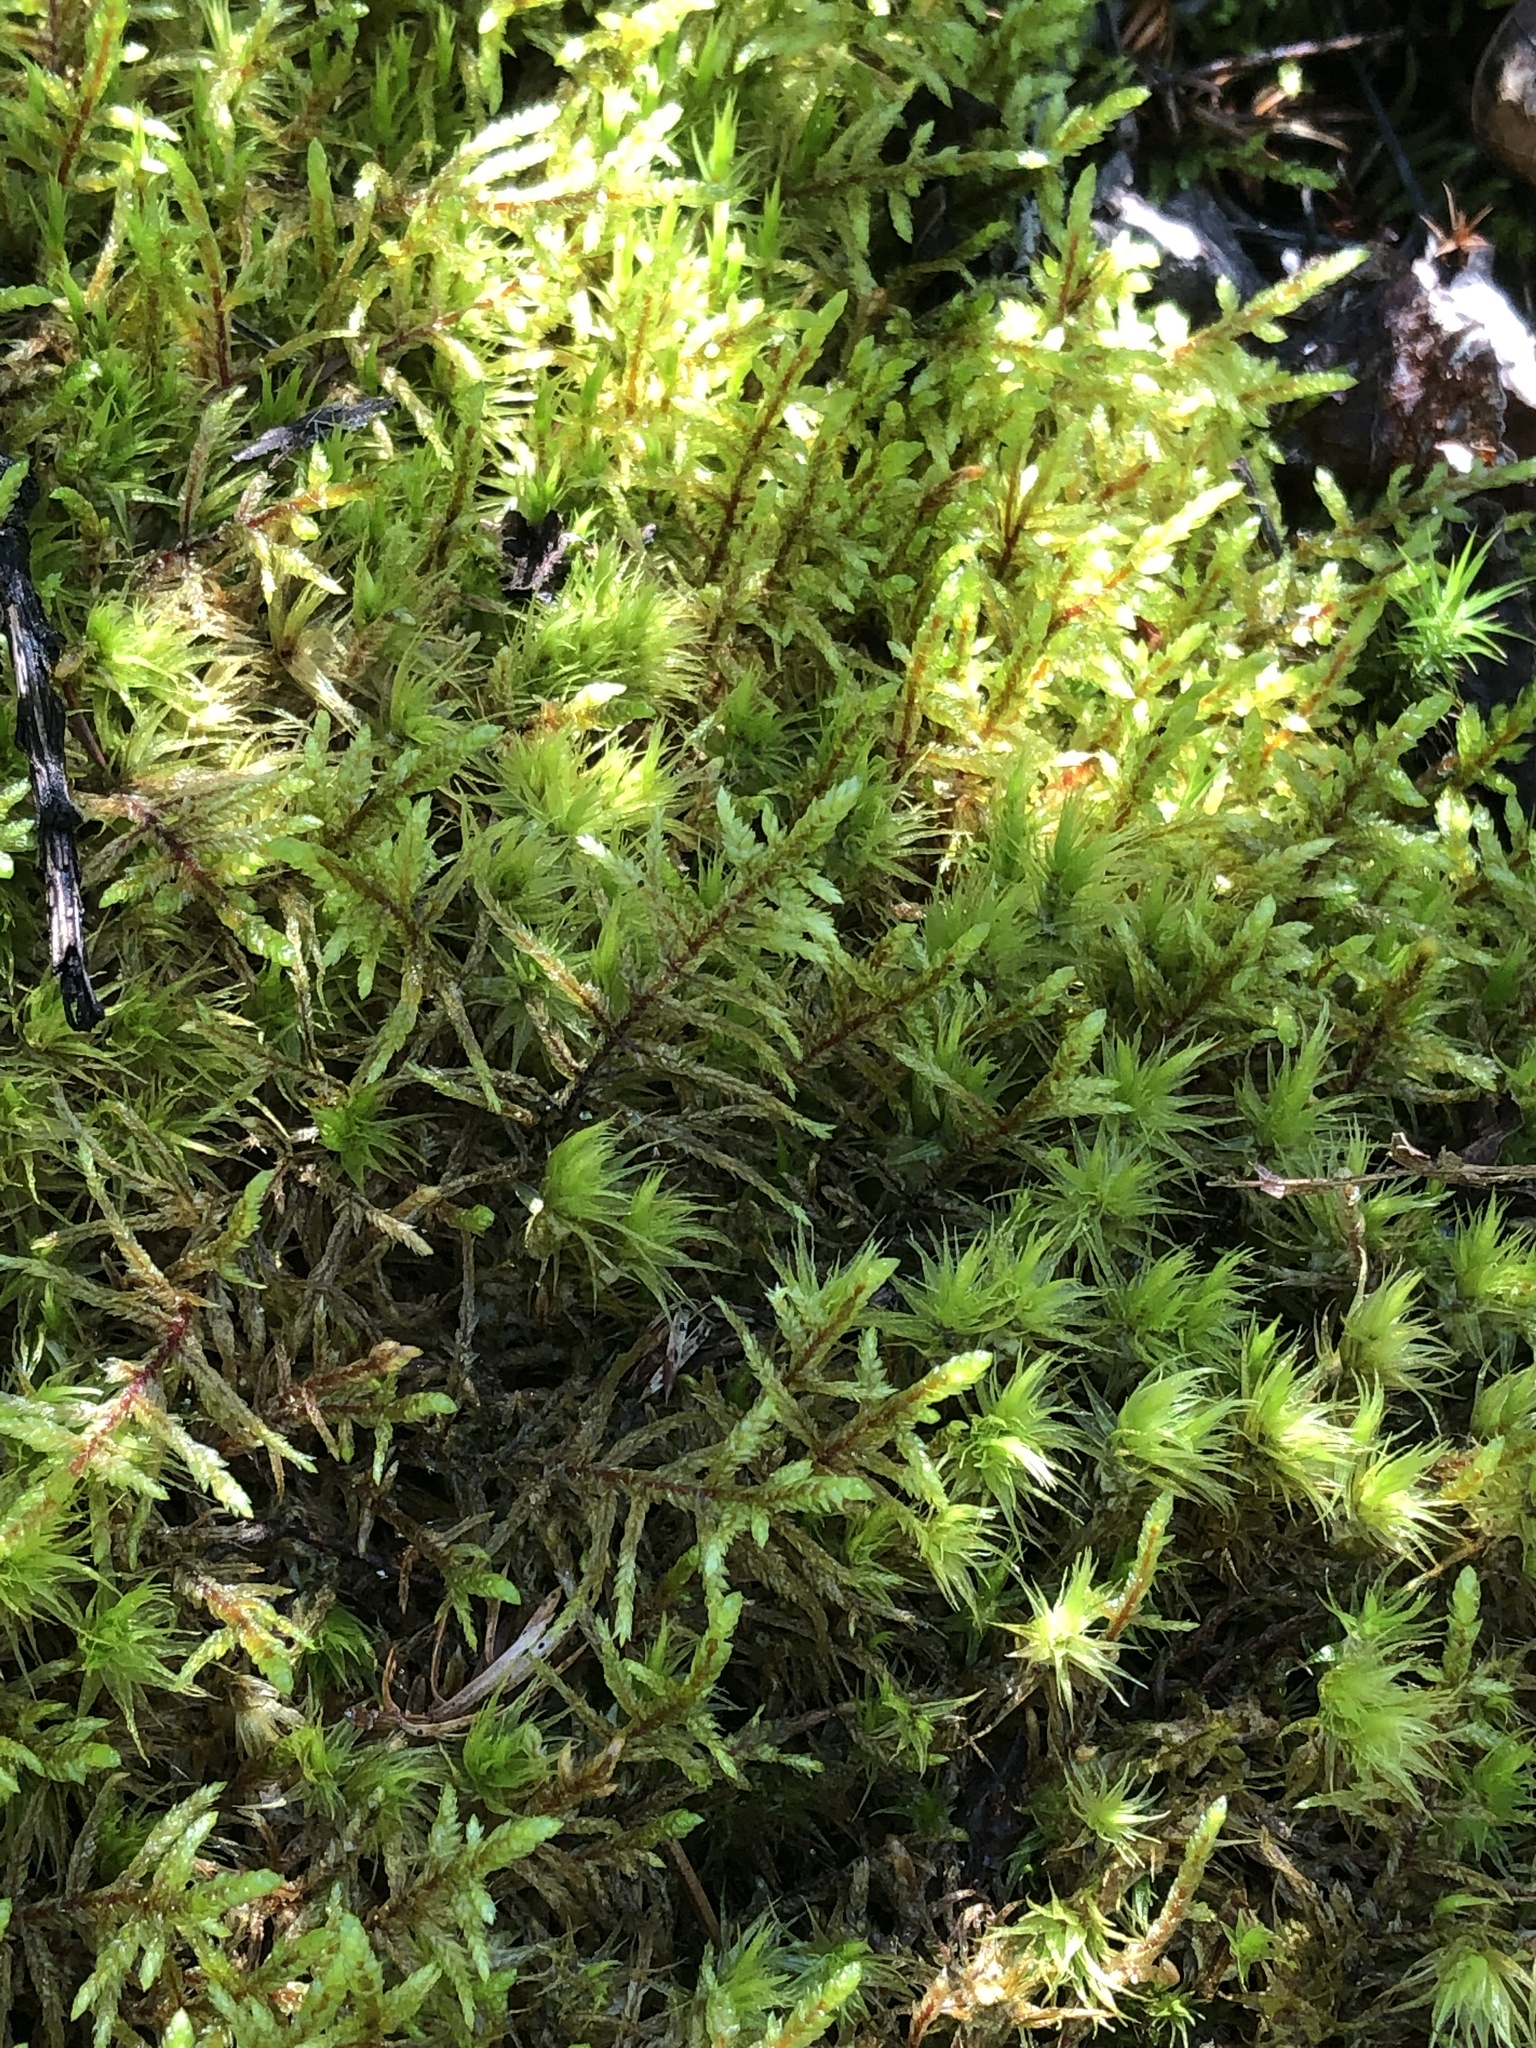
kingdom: Plantae
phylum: Bryophyta
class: Bryopsida
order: Hypnales
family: Hylocomiaceae
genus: Pleurozium
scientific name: Pleurozium schreberi
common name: Red-stemmed feather moss
